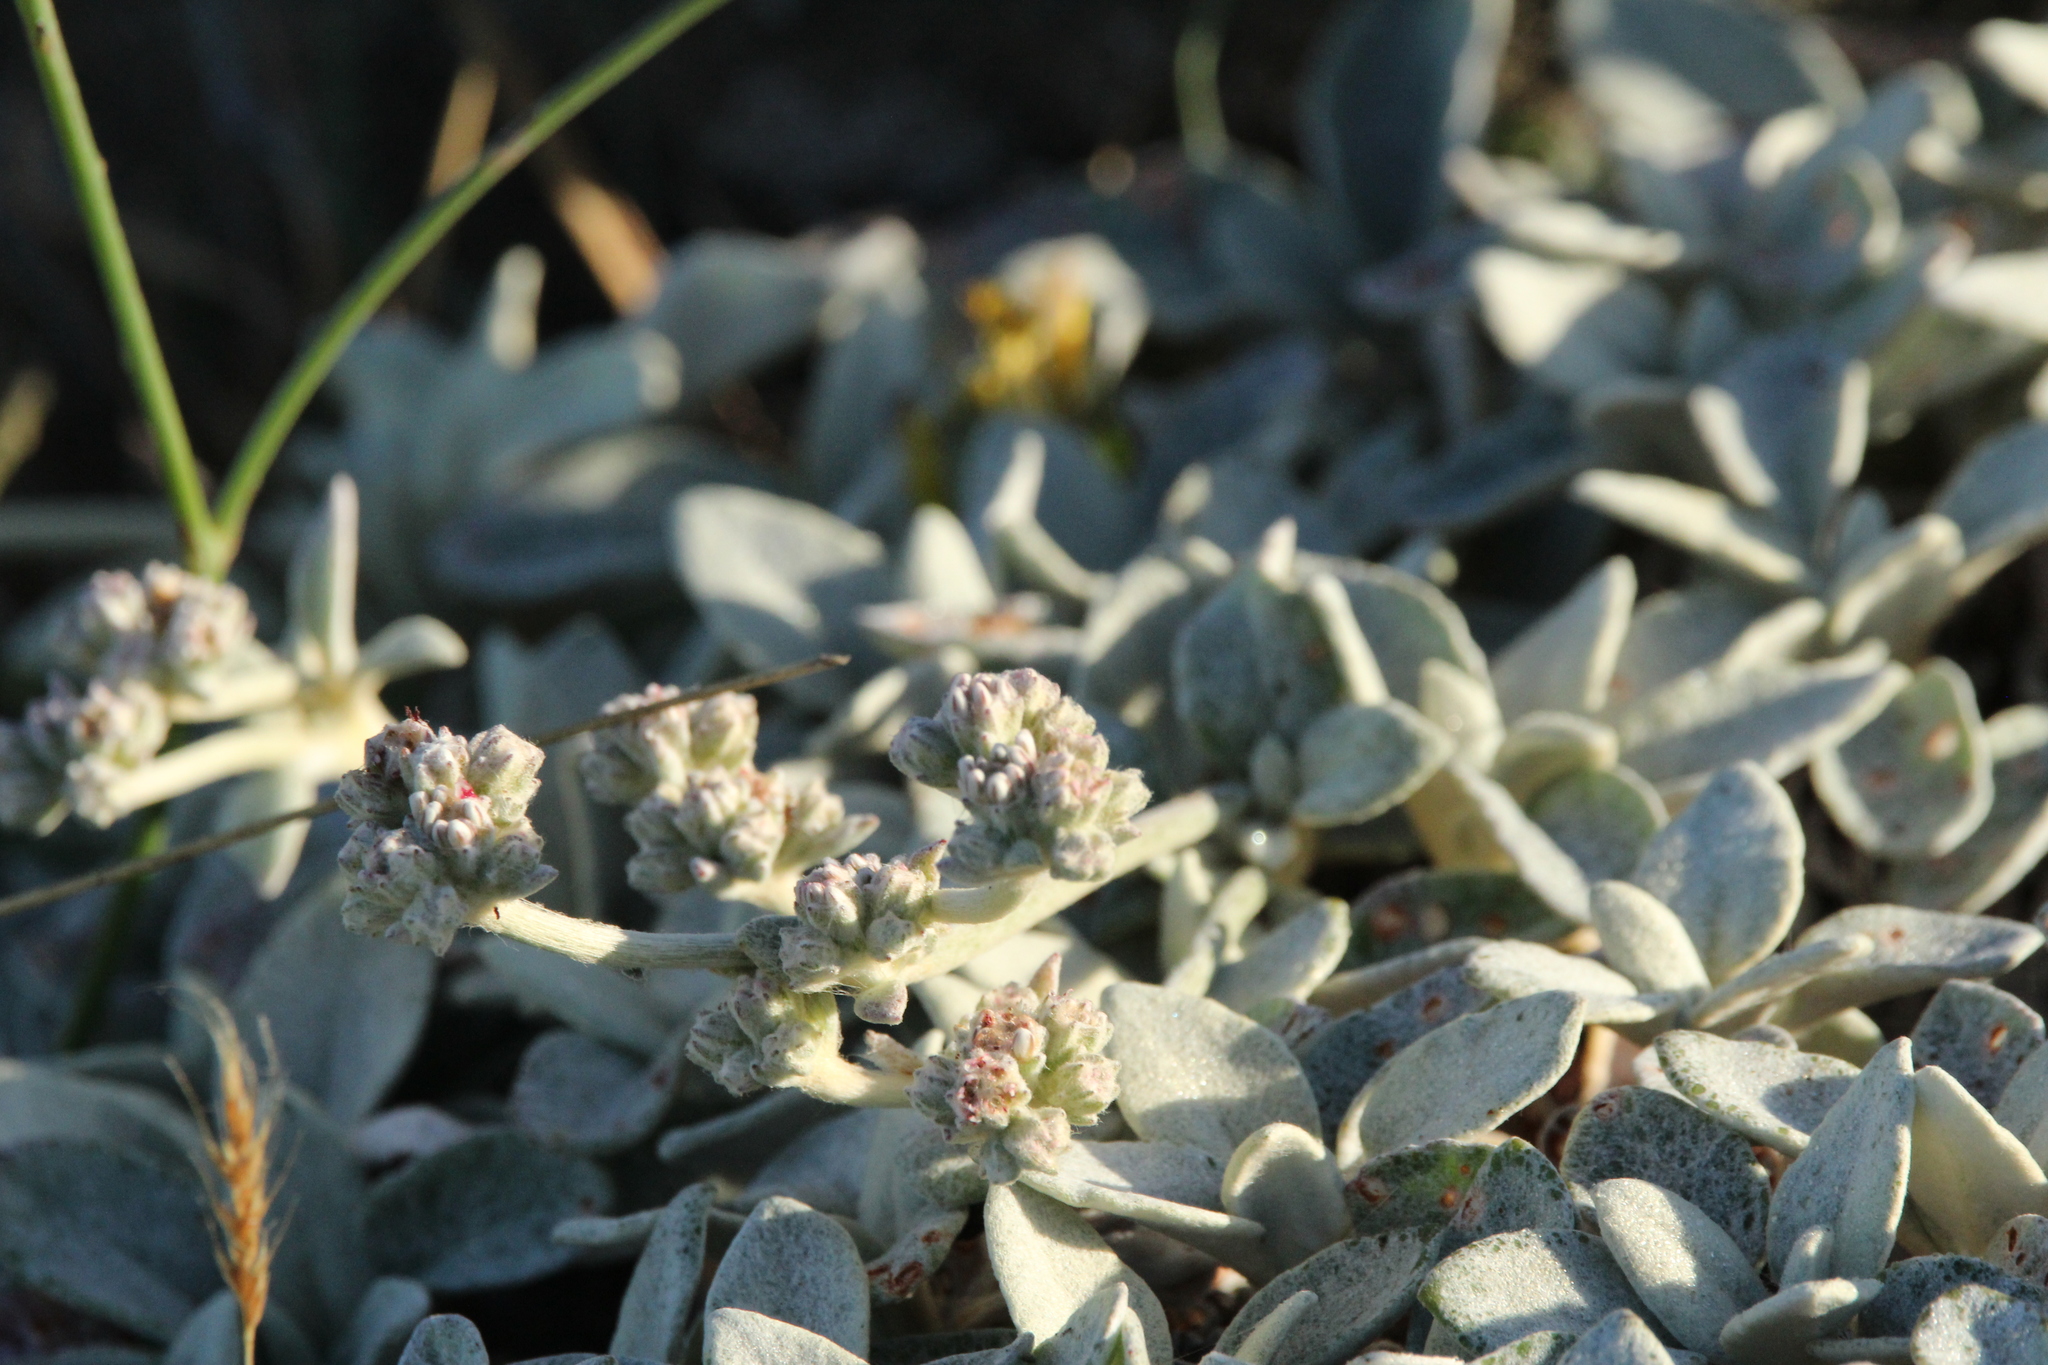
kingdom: Plantae
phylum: Tracheophyta
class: Magnoliopsida
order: Caryophyllales
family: Polygonaceae
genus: Eriogonum
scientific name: Eriogonum latifolium
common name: Seaside wild buckwheat
